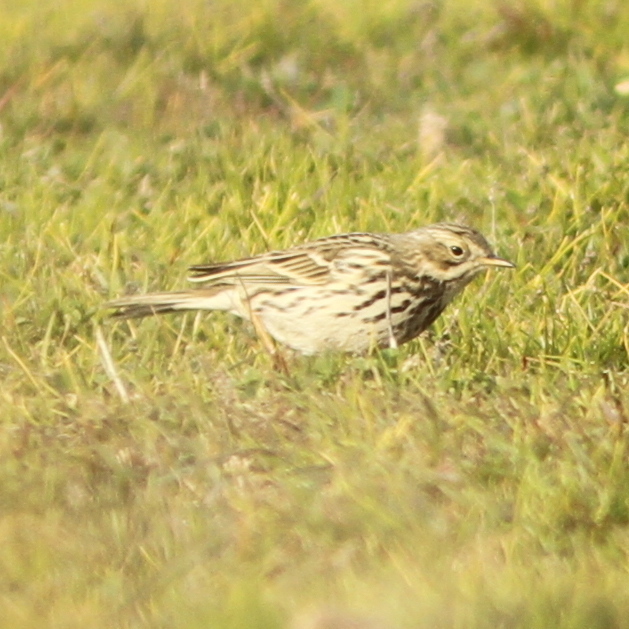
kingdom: Animalia
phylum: Chordata
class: Aves
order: Passeriformes
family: Motacillidae
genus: Anthus
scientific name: Anthus pratensis
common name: Meadow pipit
